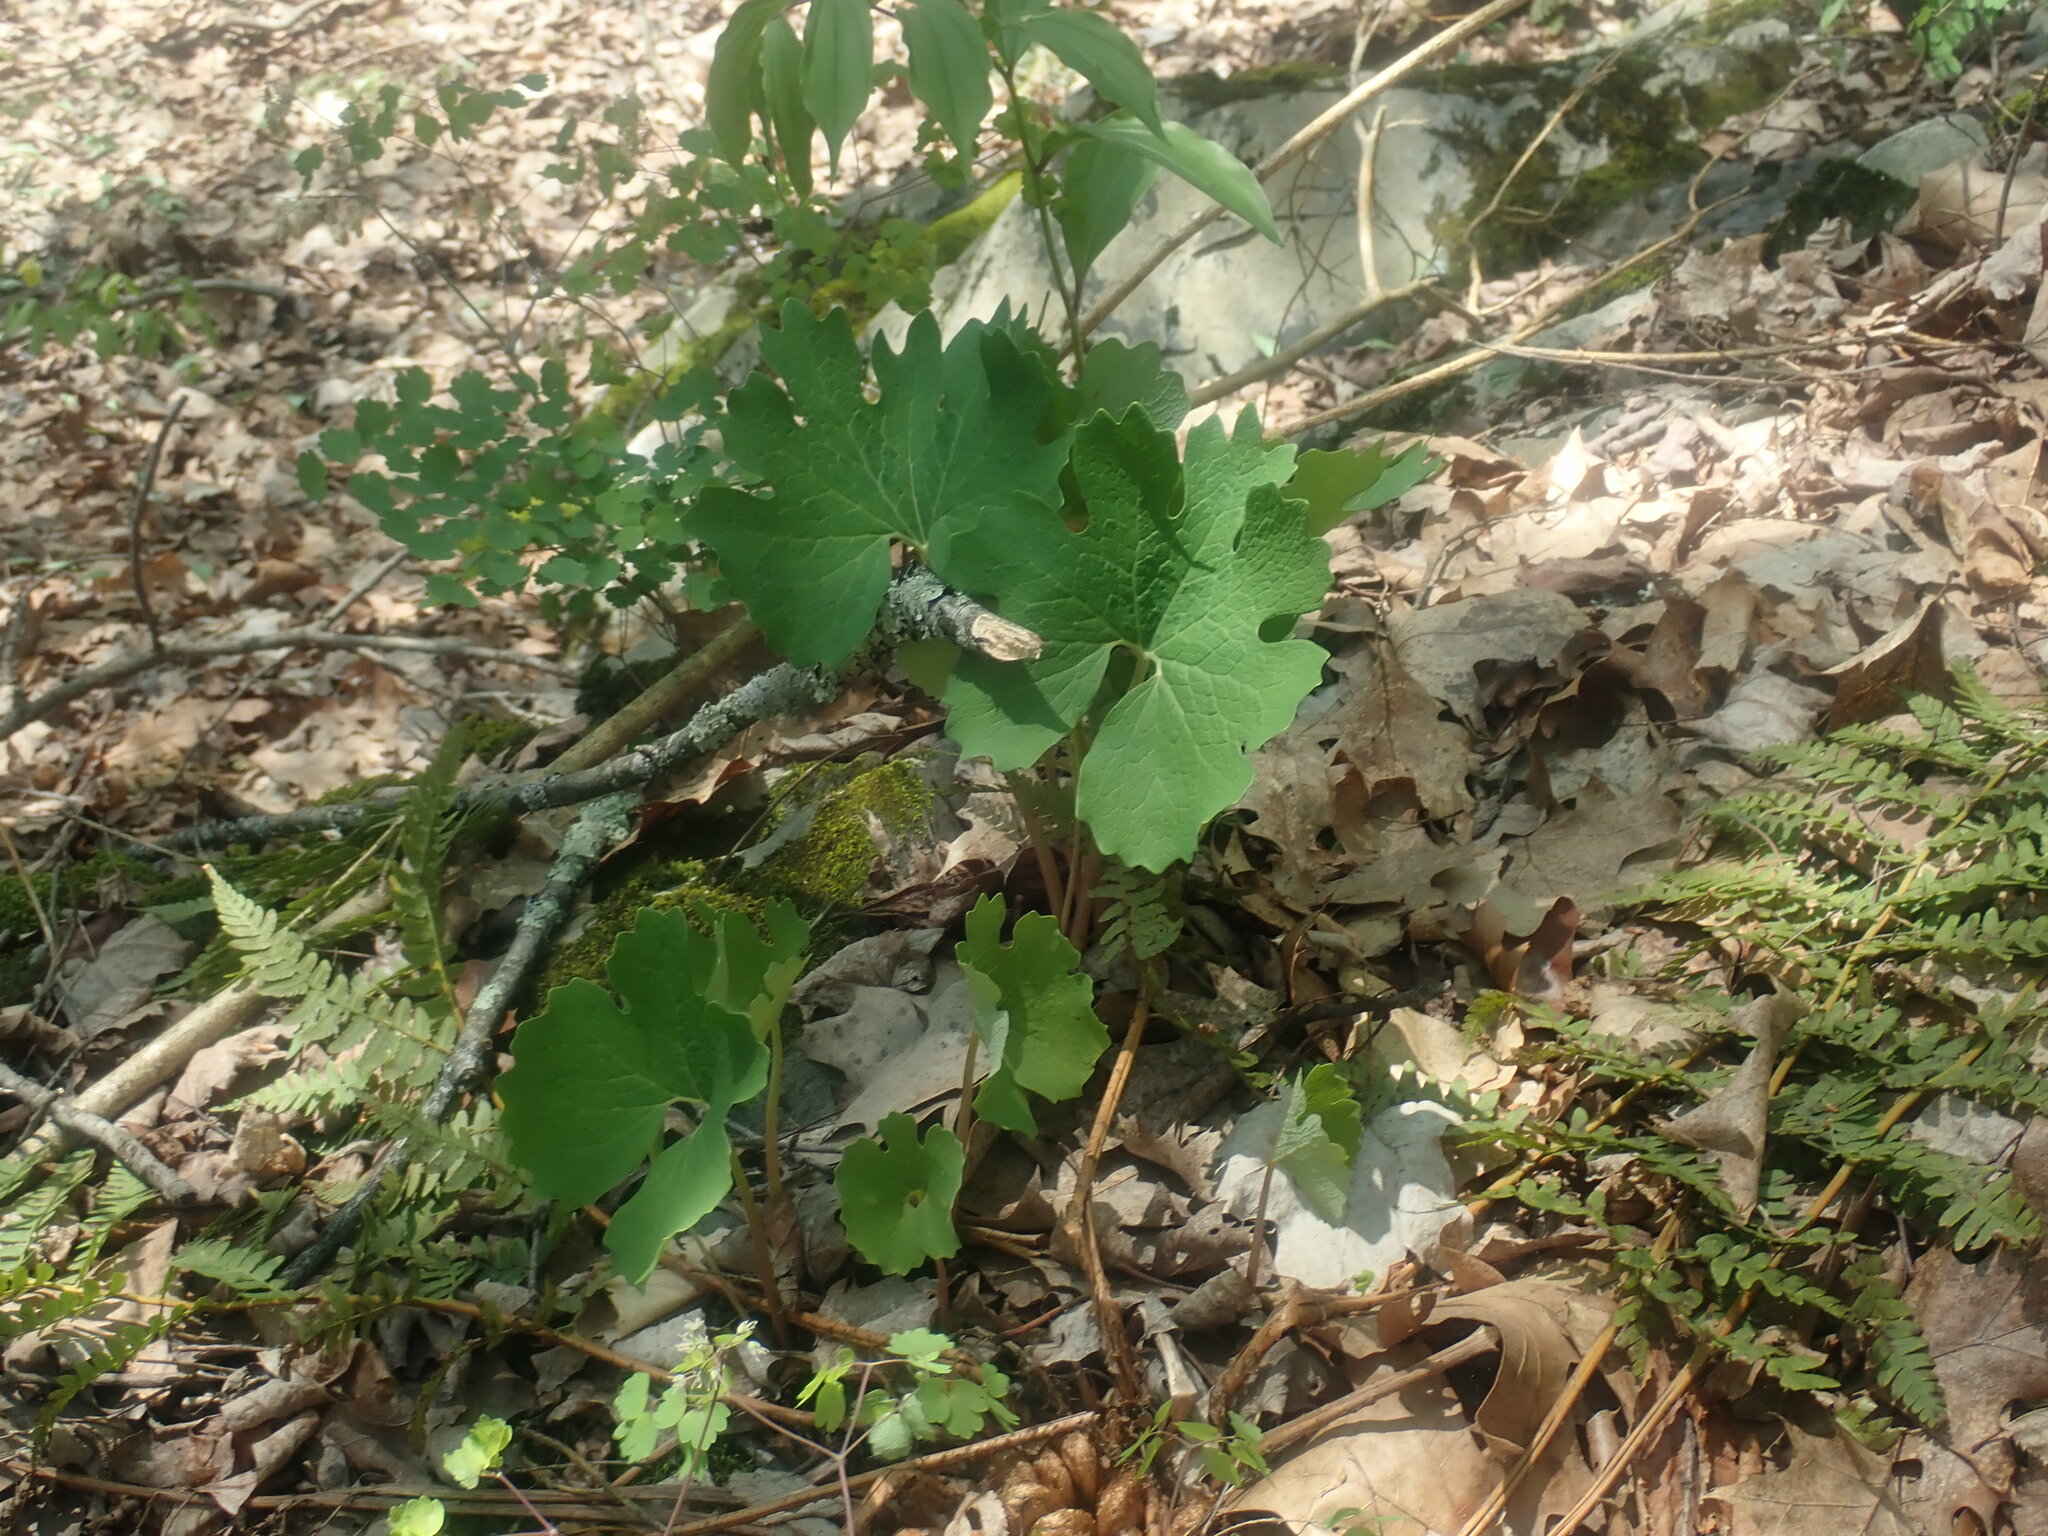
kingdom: Plantae
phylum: Tracheophyta
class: Magnoliopsida
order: Ranunculales
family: Papaveraceae
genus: Sanguinaria
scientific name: Sanguinaria canadensis
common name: Bloodroot
